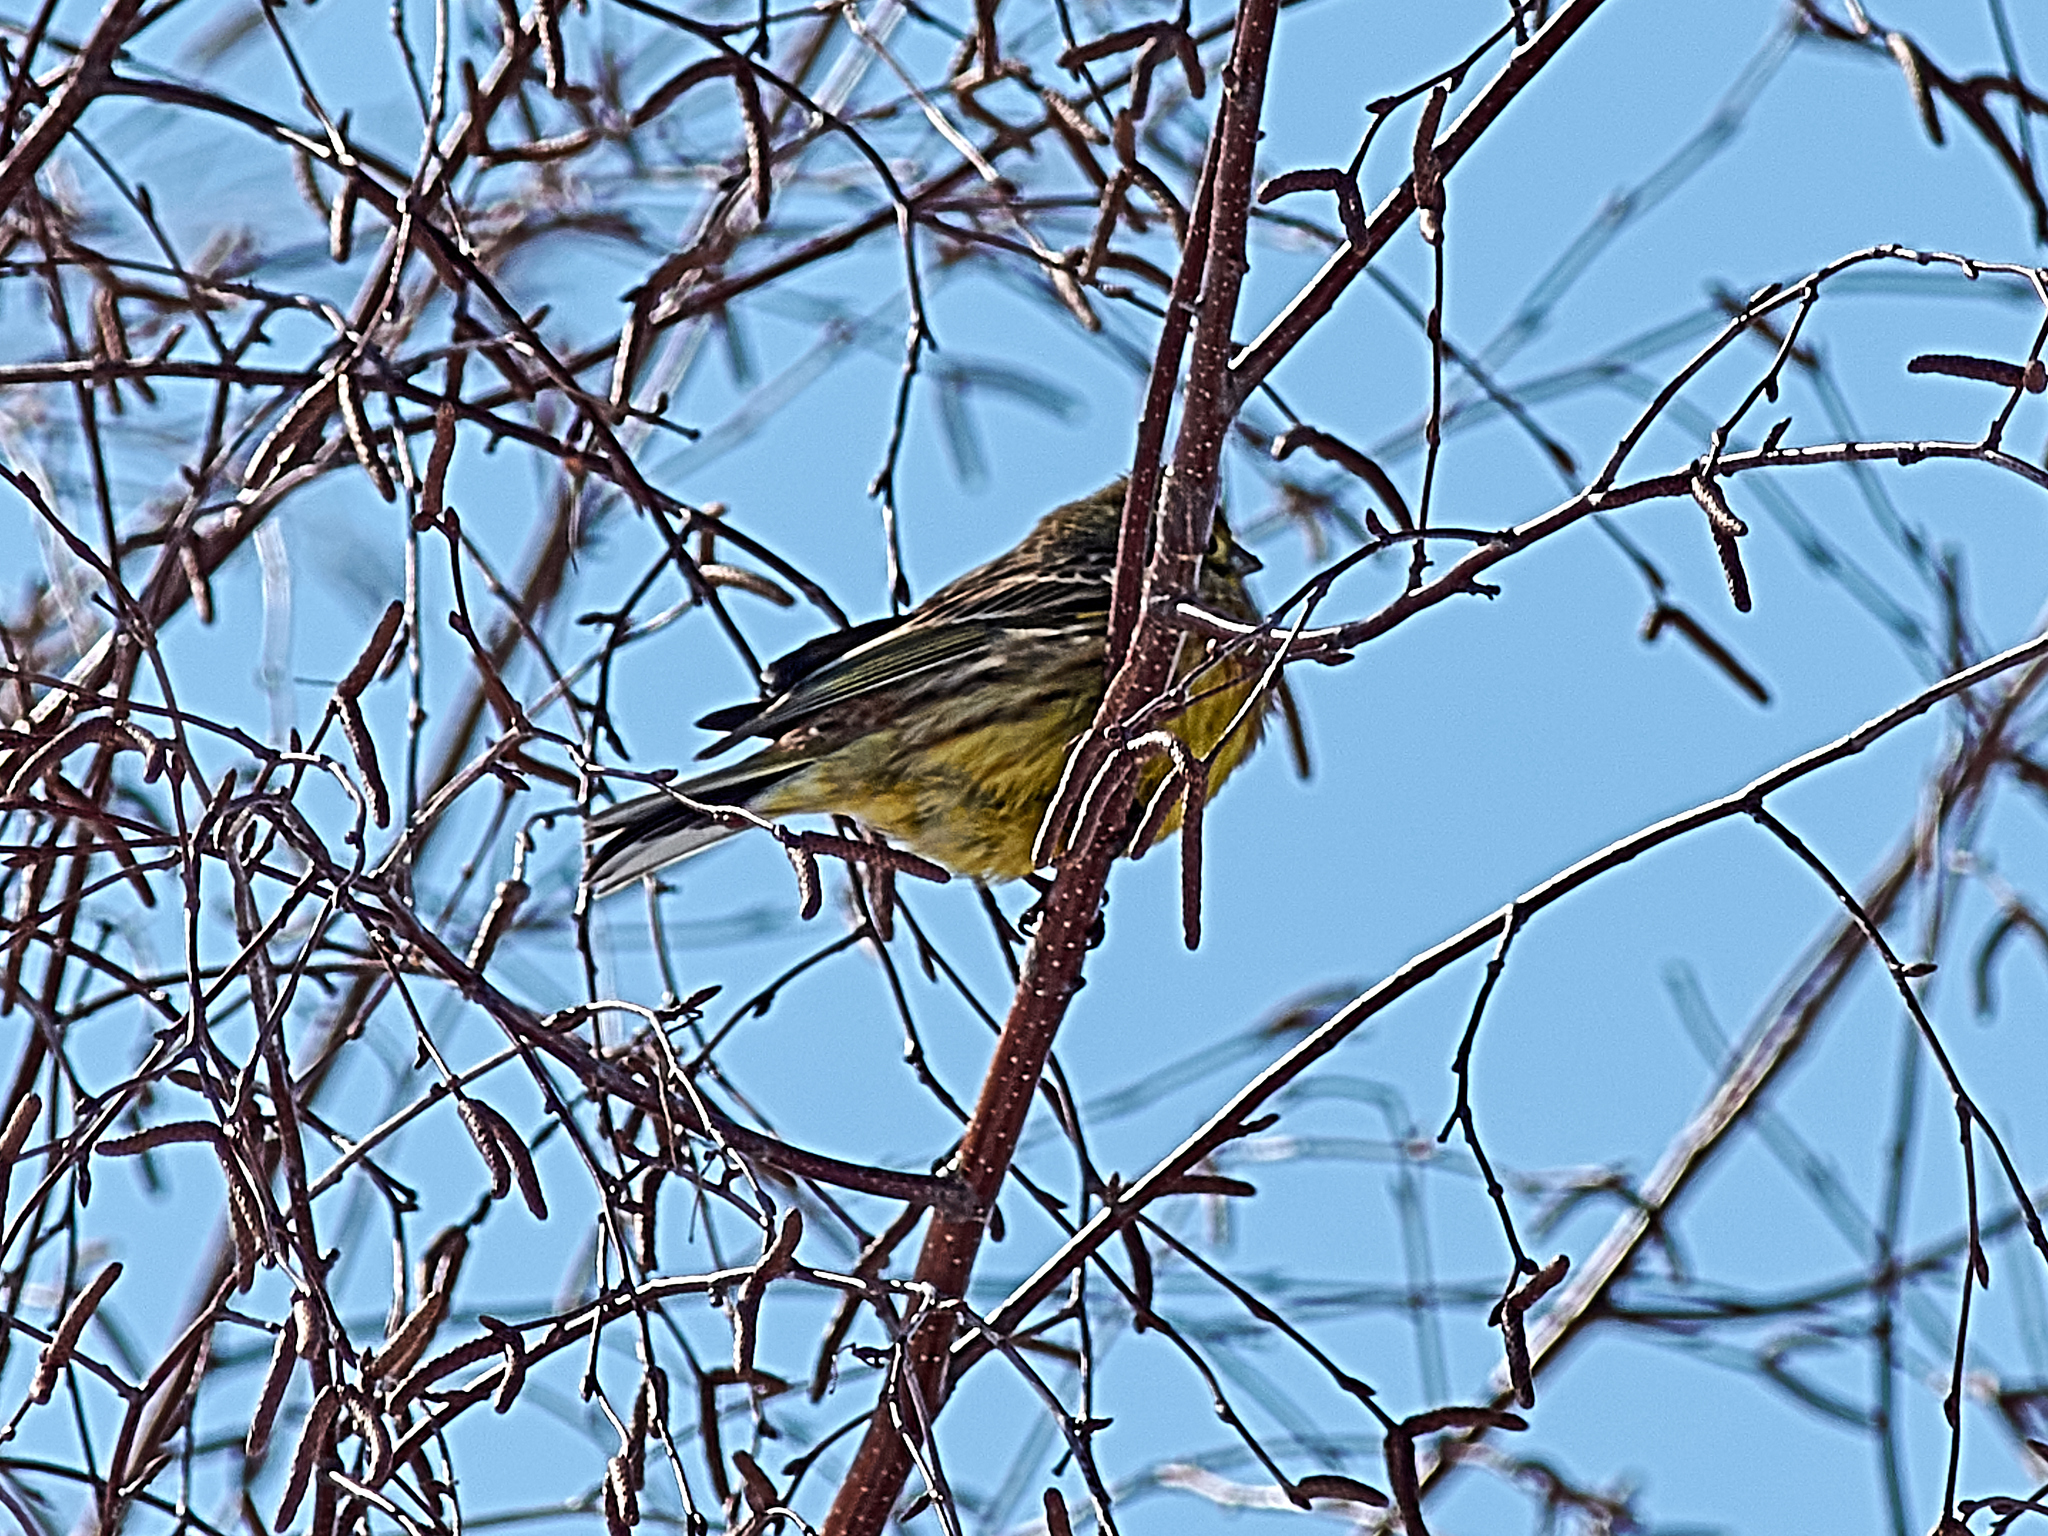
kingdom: Animalia
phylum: Chordata
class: Aves
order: Passeriformes
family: Emberizidae
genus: Emberiza
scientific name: Emberiza citrinella
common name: Yellowhammer
